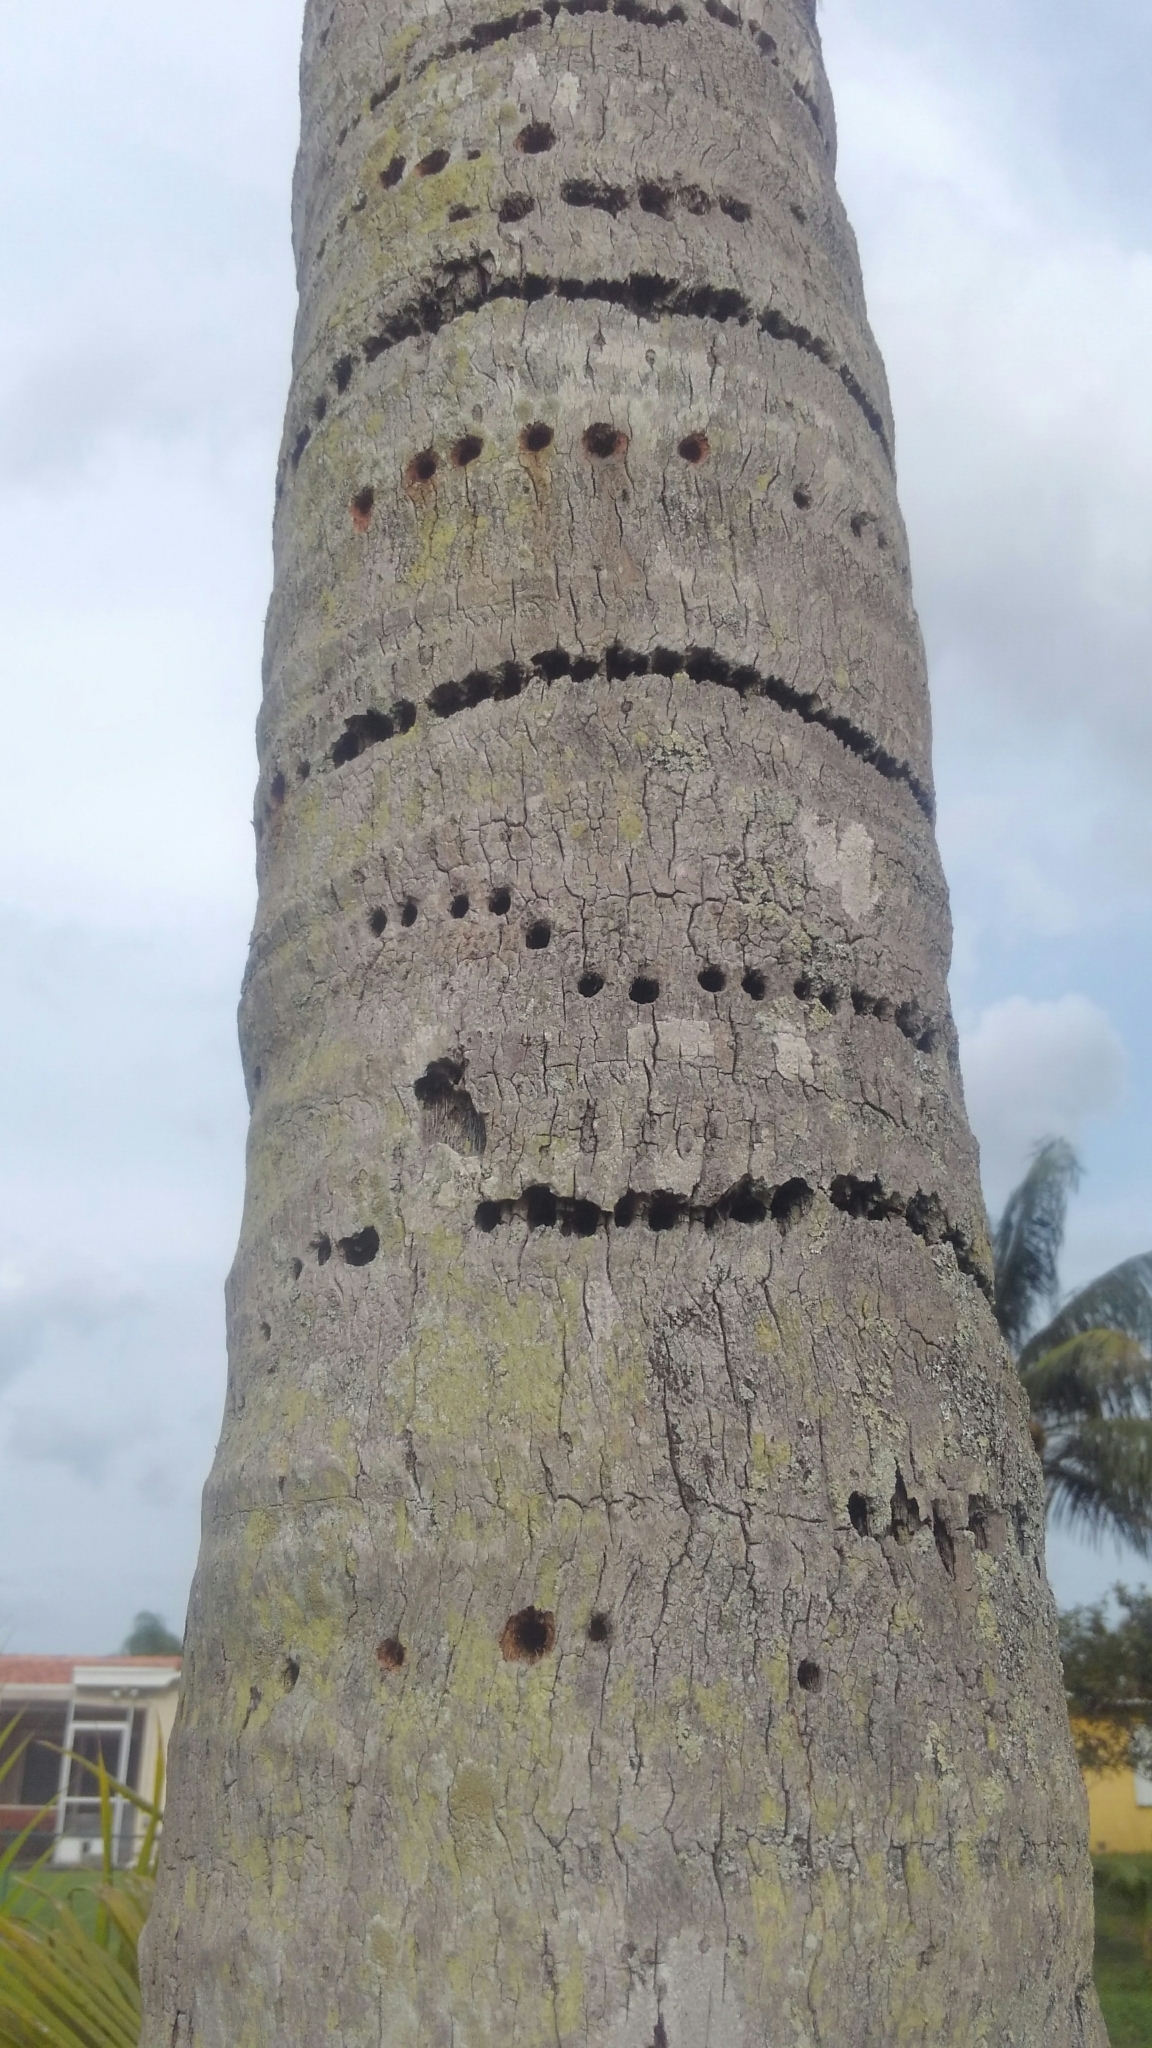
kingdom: Animalia
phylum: Chordata
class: Aves
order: Piciformes
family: Picidae
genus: Sphyrapicus
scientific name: Sphyrapicus varius
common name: Yellow-bellied sapsucker
